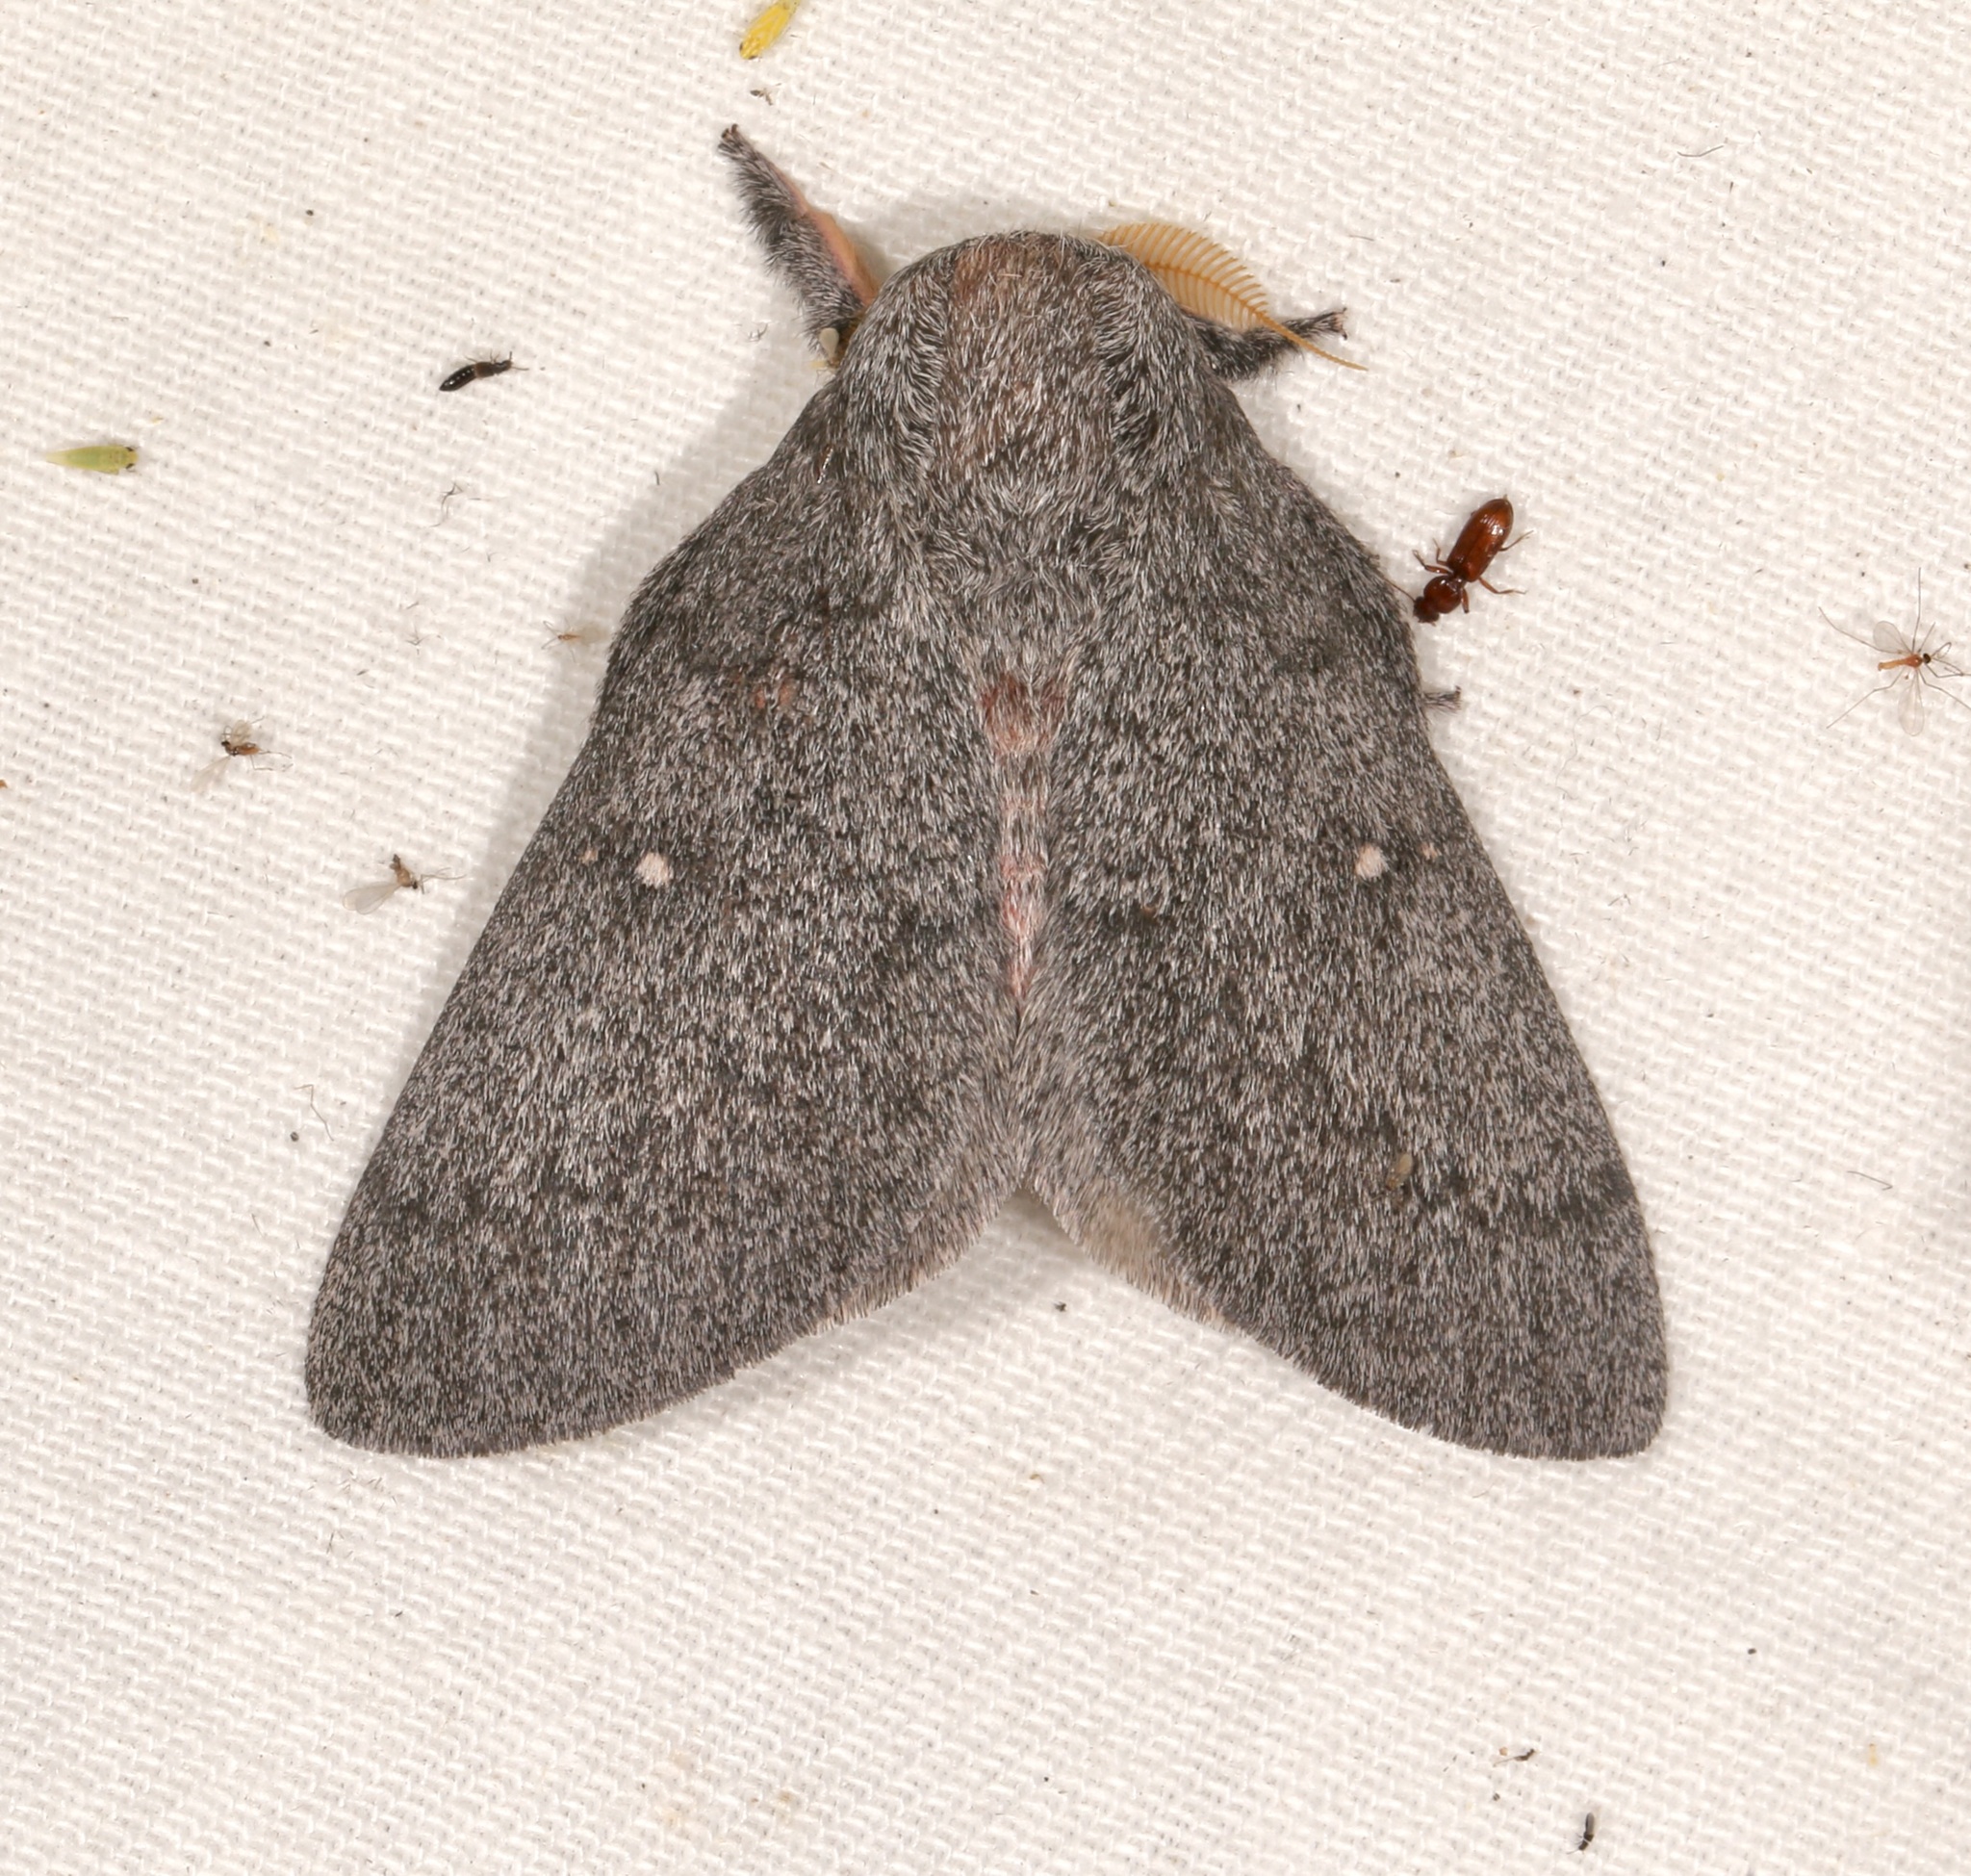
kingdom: Animalia
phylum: Arthropoda
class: Insecta
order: Lepidoptera
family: Saturniidae
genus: Syssphinx
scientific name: Syssphinx hubbardi
